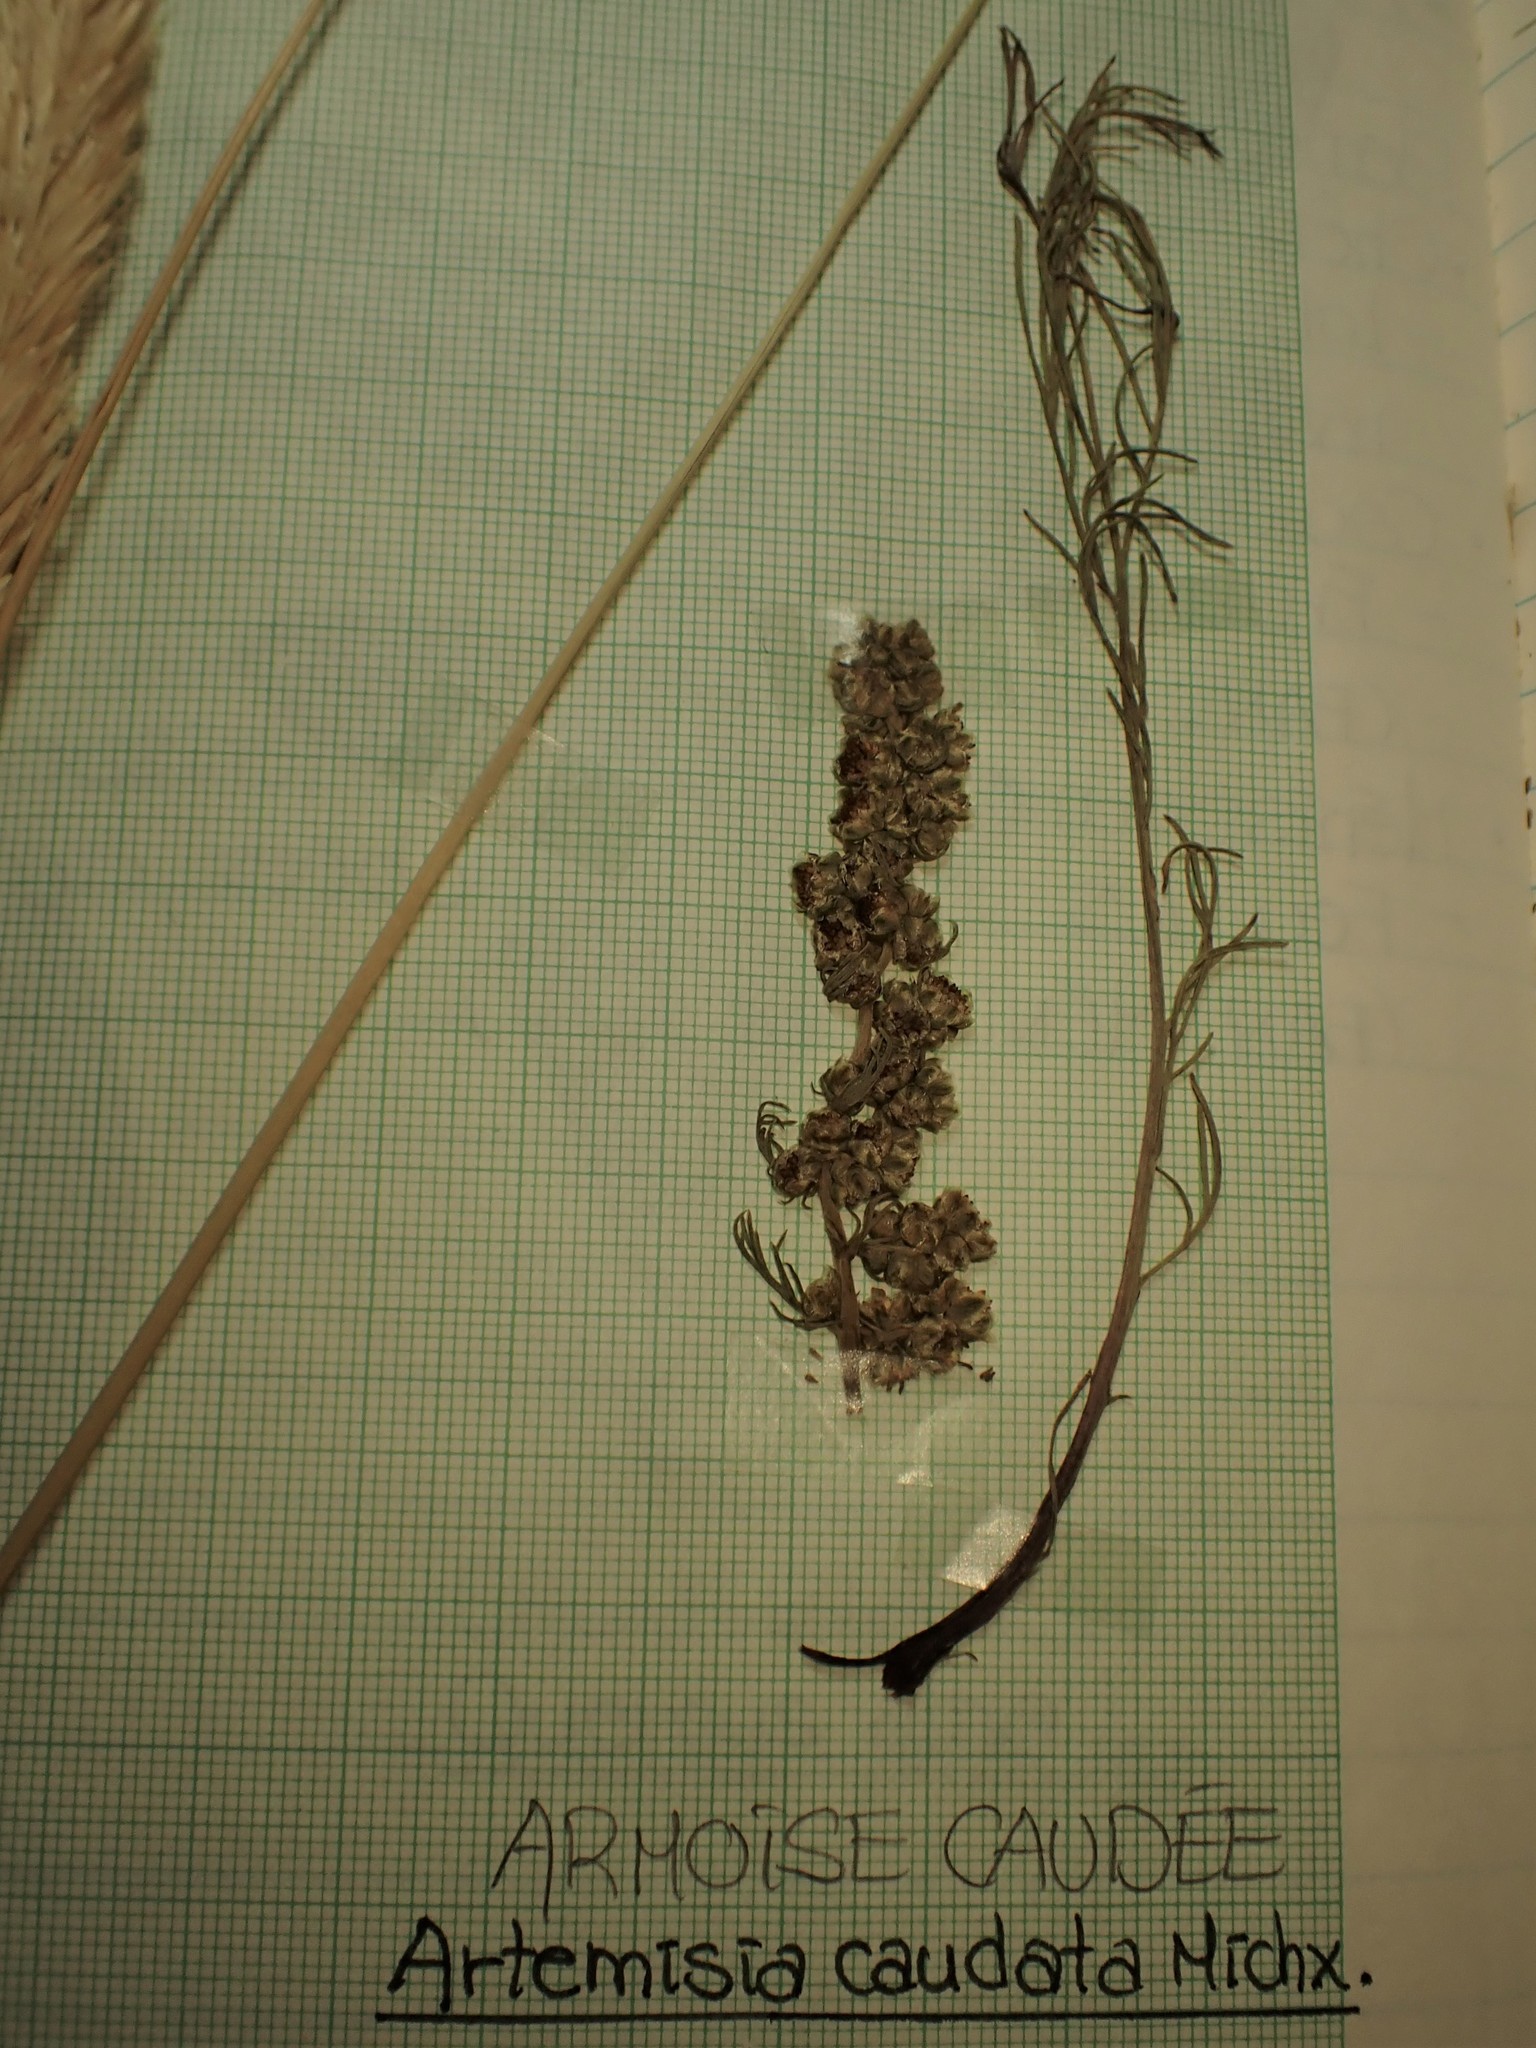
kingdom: Plantae
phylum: Tracheophyta
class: Magnoliopsida
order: Asterales
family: Asteraceae
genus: Artemisia
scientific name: Artemisia campestris
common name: Field wormwood
